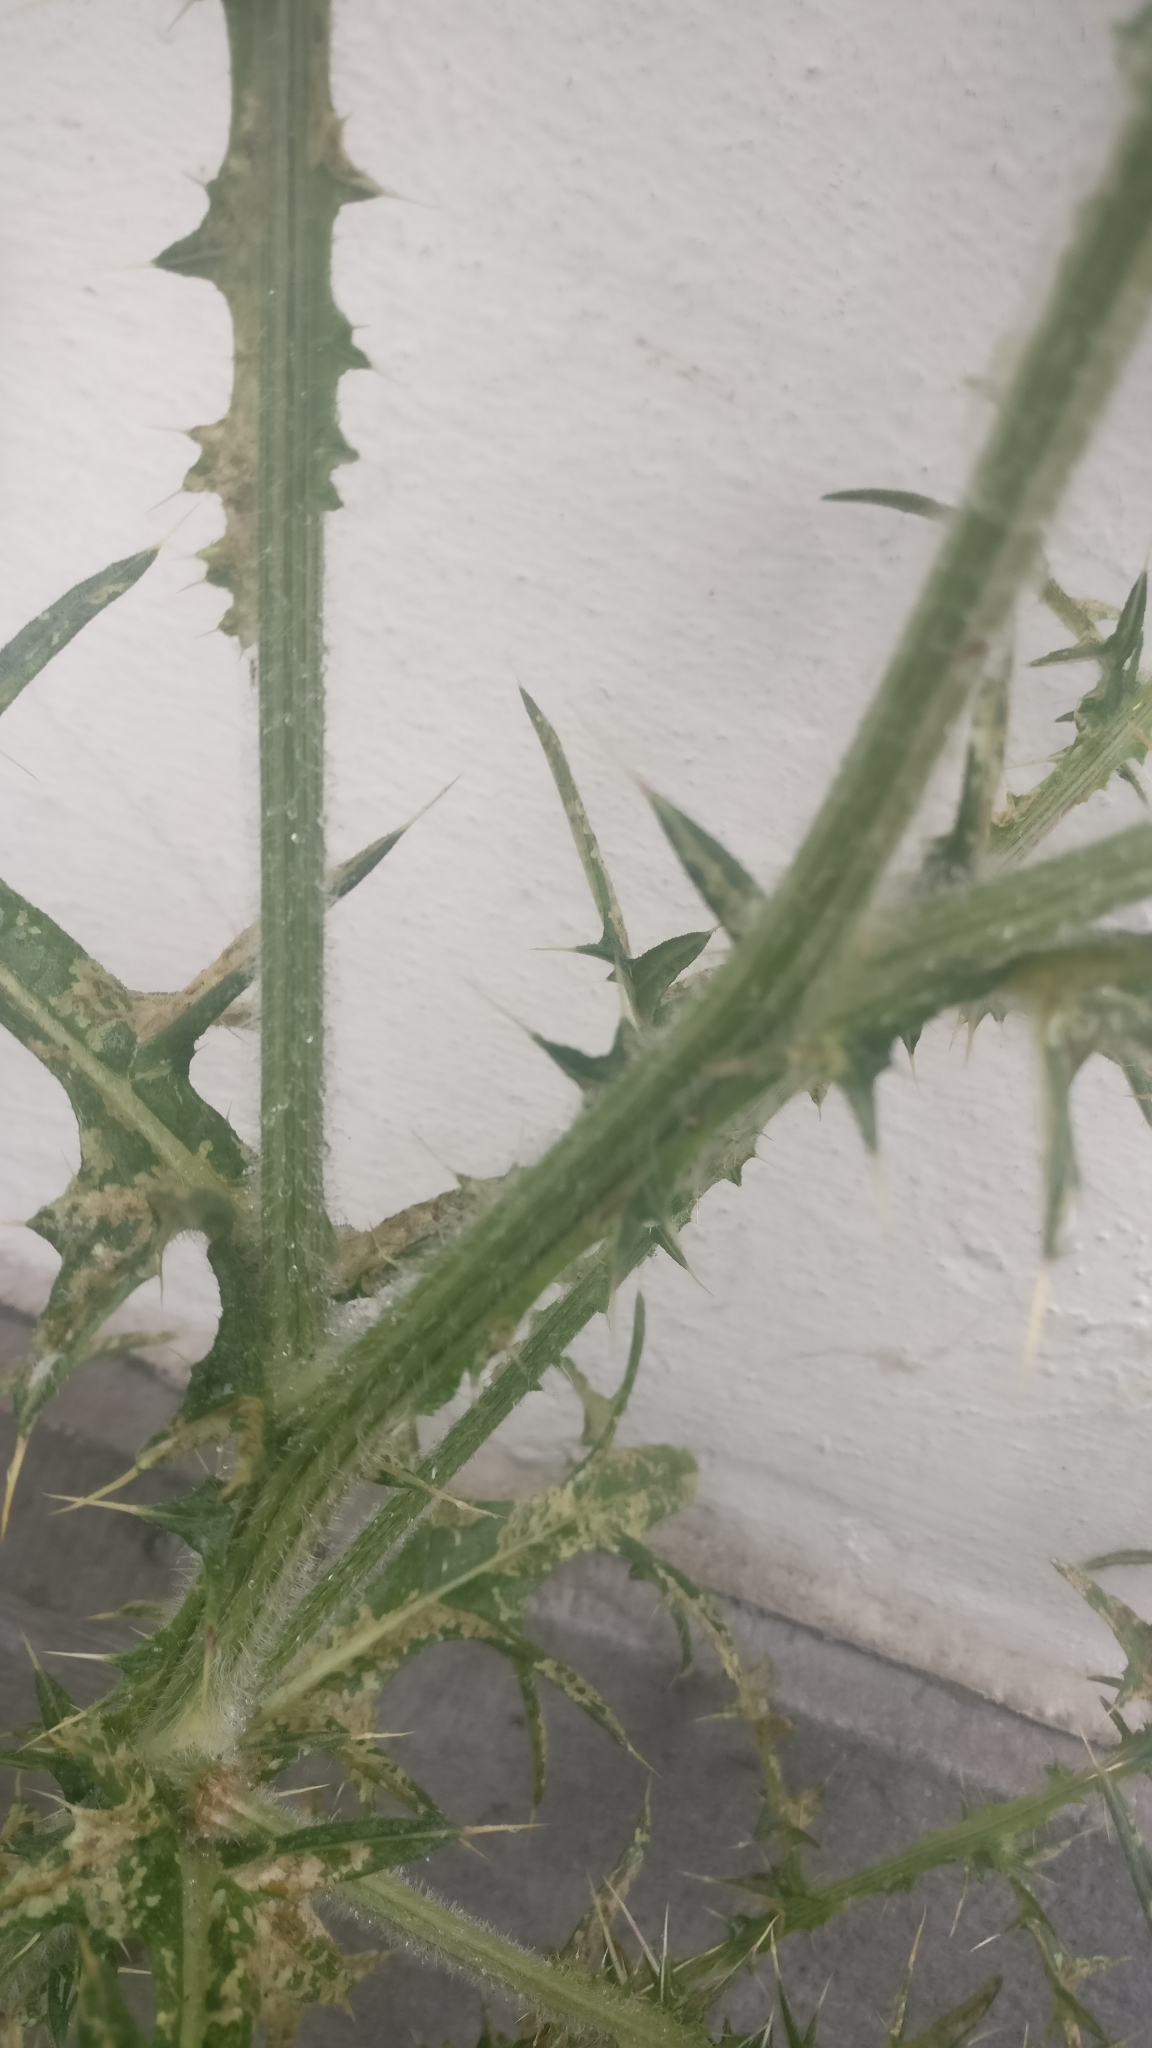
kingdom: Plantae
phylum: Tracheophyta
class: Magnoliopsida
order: Asterales
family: Asteraceae
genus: Cirsium
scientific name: Cirsium vulgare
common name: Bull thistle
